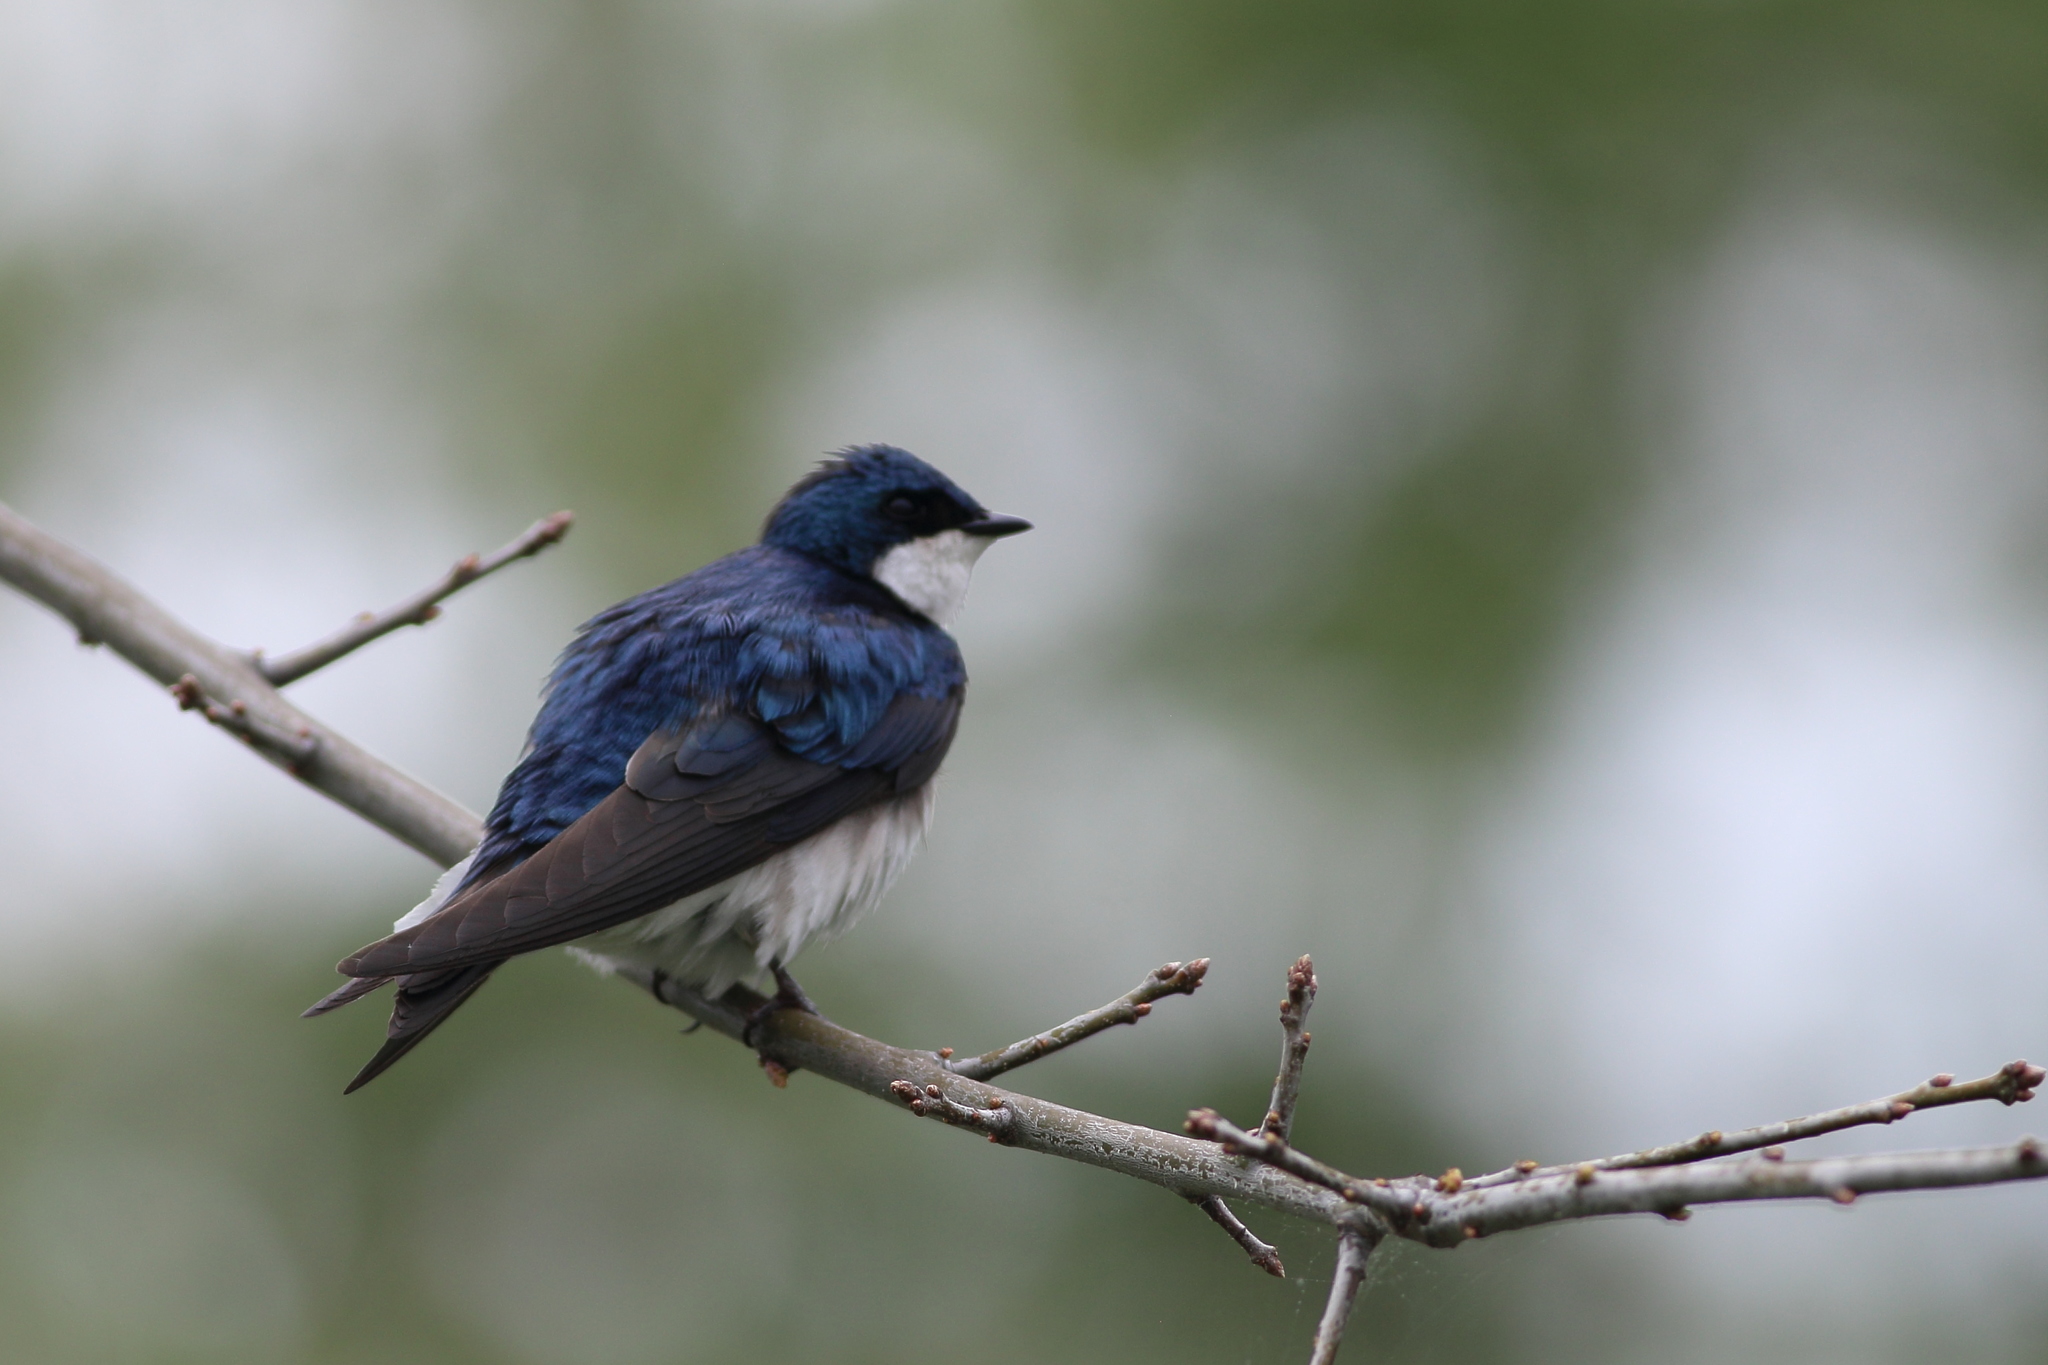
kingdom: Animalia
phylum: Chordata
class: Aves
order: Passeriformes
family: Hirundinidae
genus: Tachycineta
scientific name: Tachycineta bicolor
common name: Tree swallow
